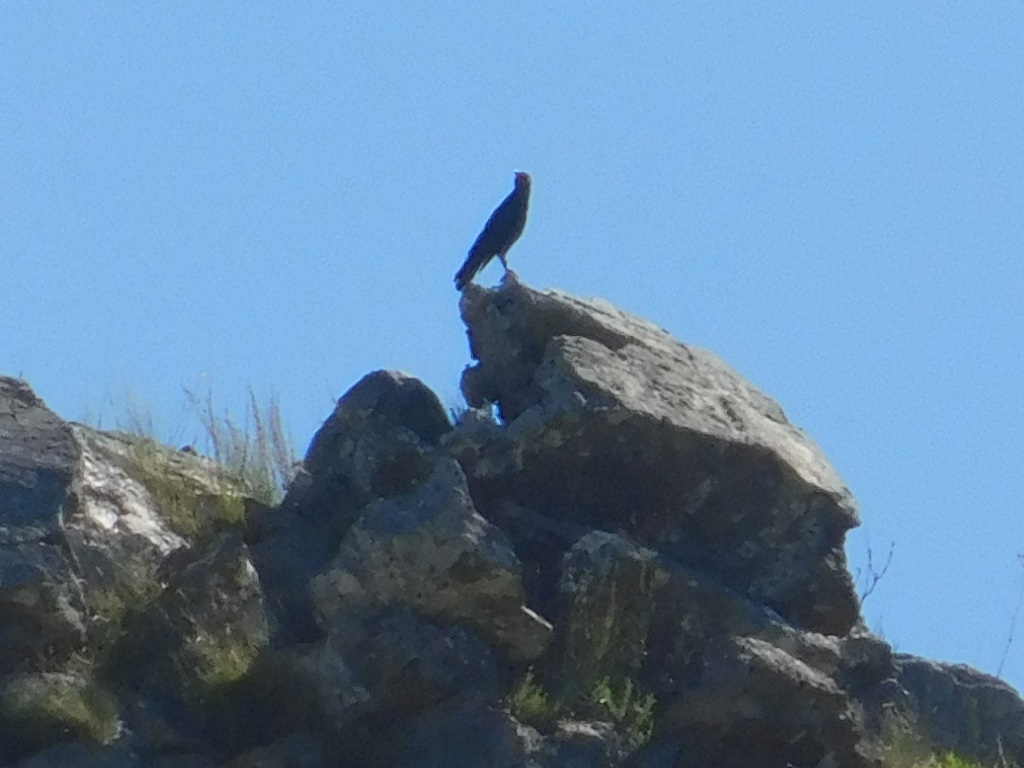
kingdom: Animalia
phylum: Chordata
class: Aves
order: Passeriformes
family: Corvidae
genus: Corvus
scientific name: Corvus capensis
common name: Cape crow
